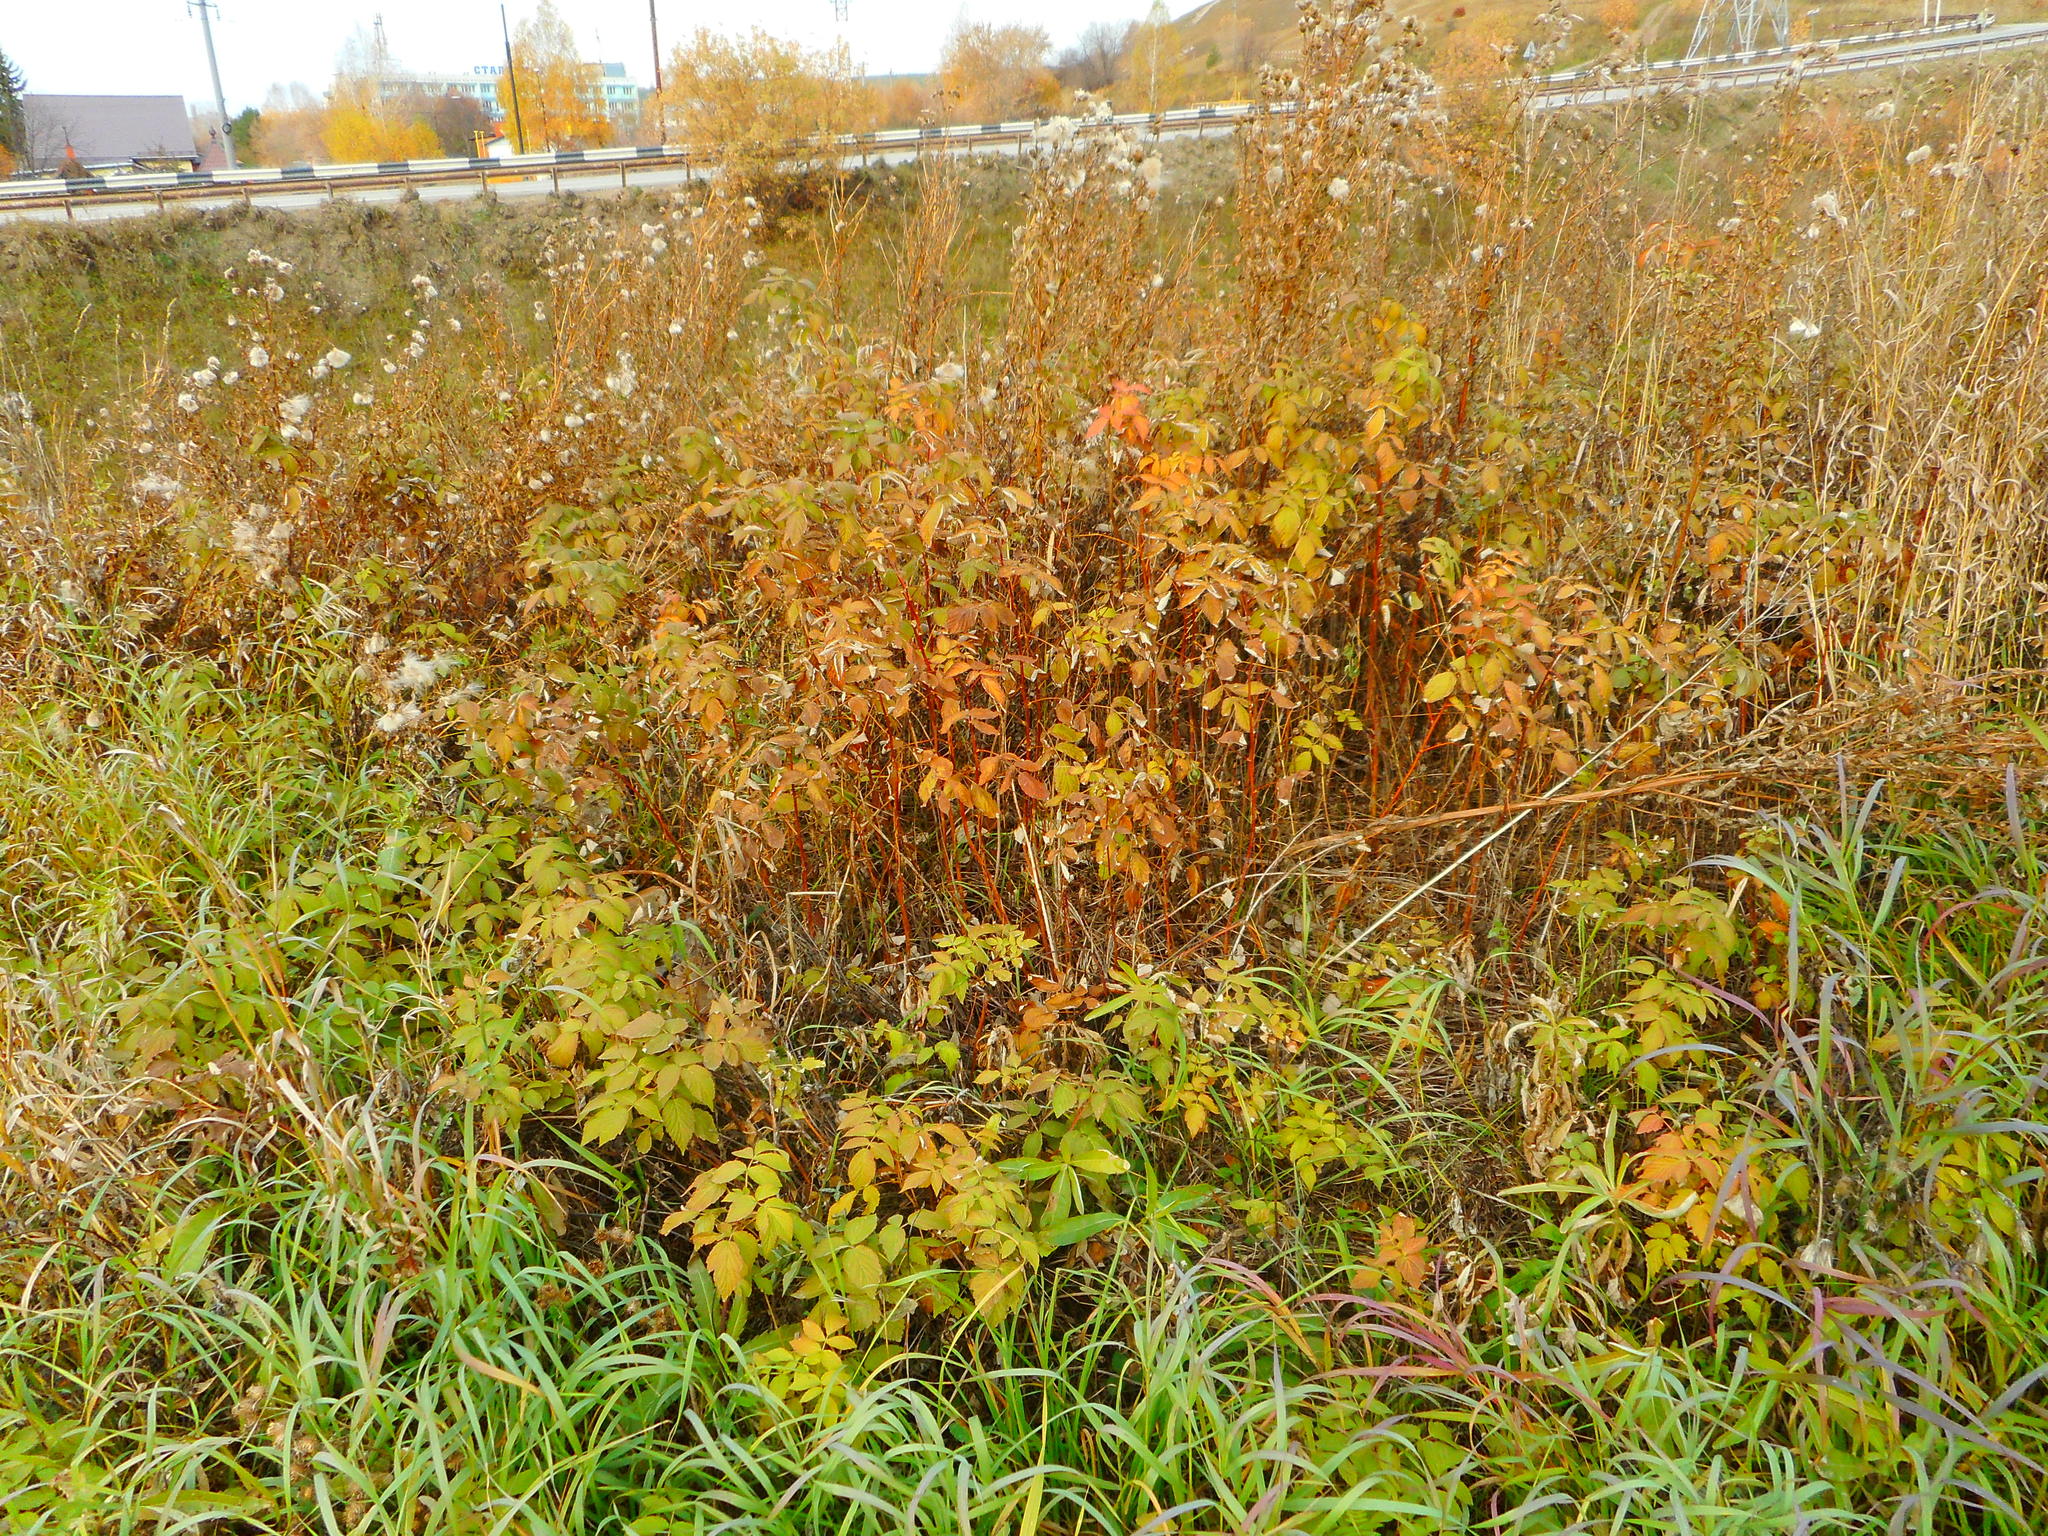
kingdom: Plantae
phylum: Tracheophyta
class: Magnoliopsida
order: Rosales
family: Rosaceae
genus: Rubus
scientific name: Rubus idaeus
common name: Raspberry
